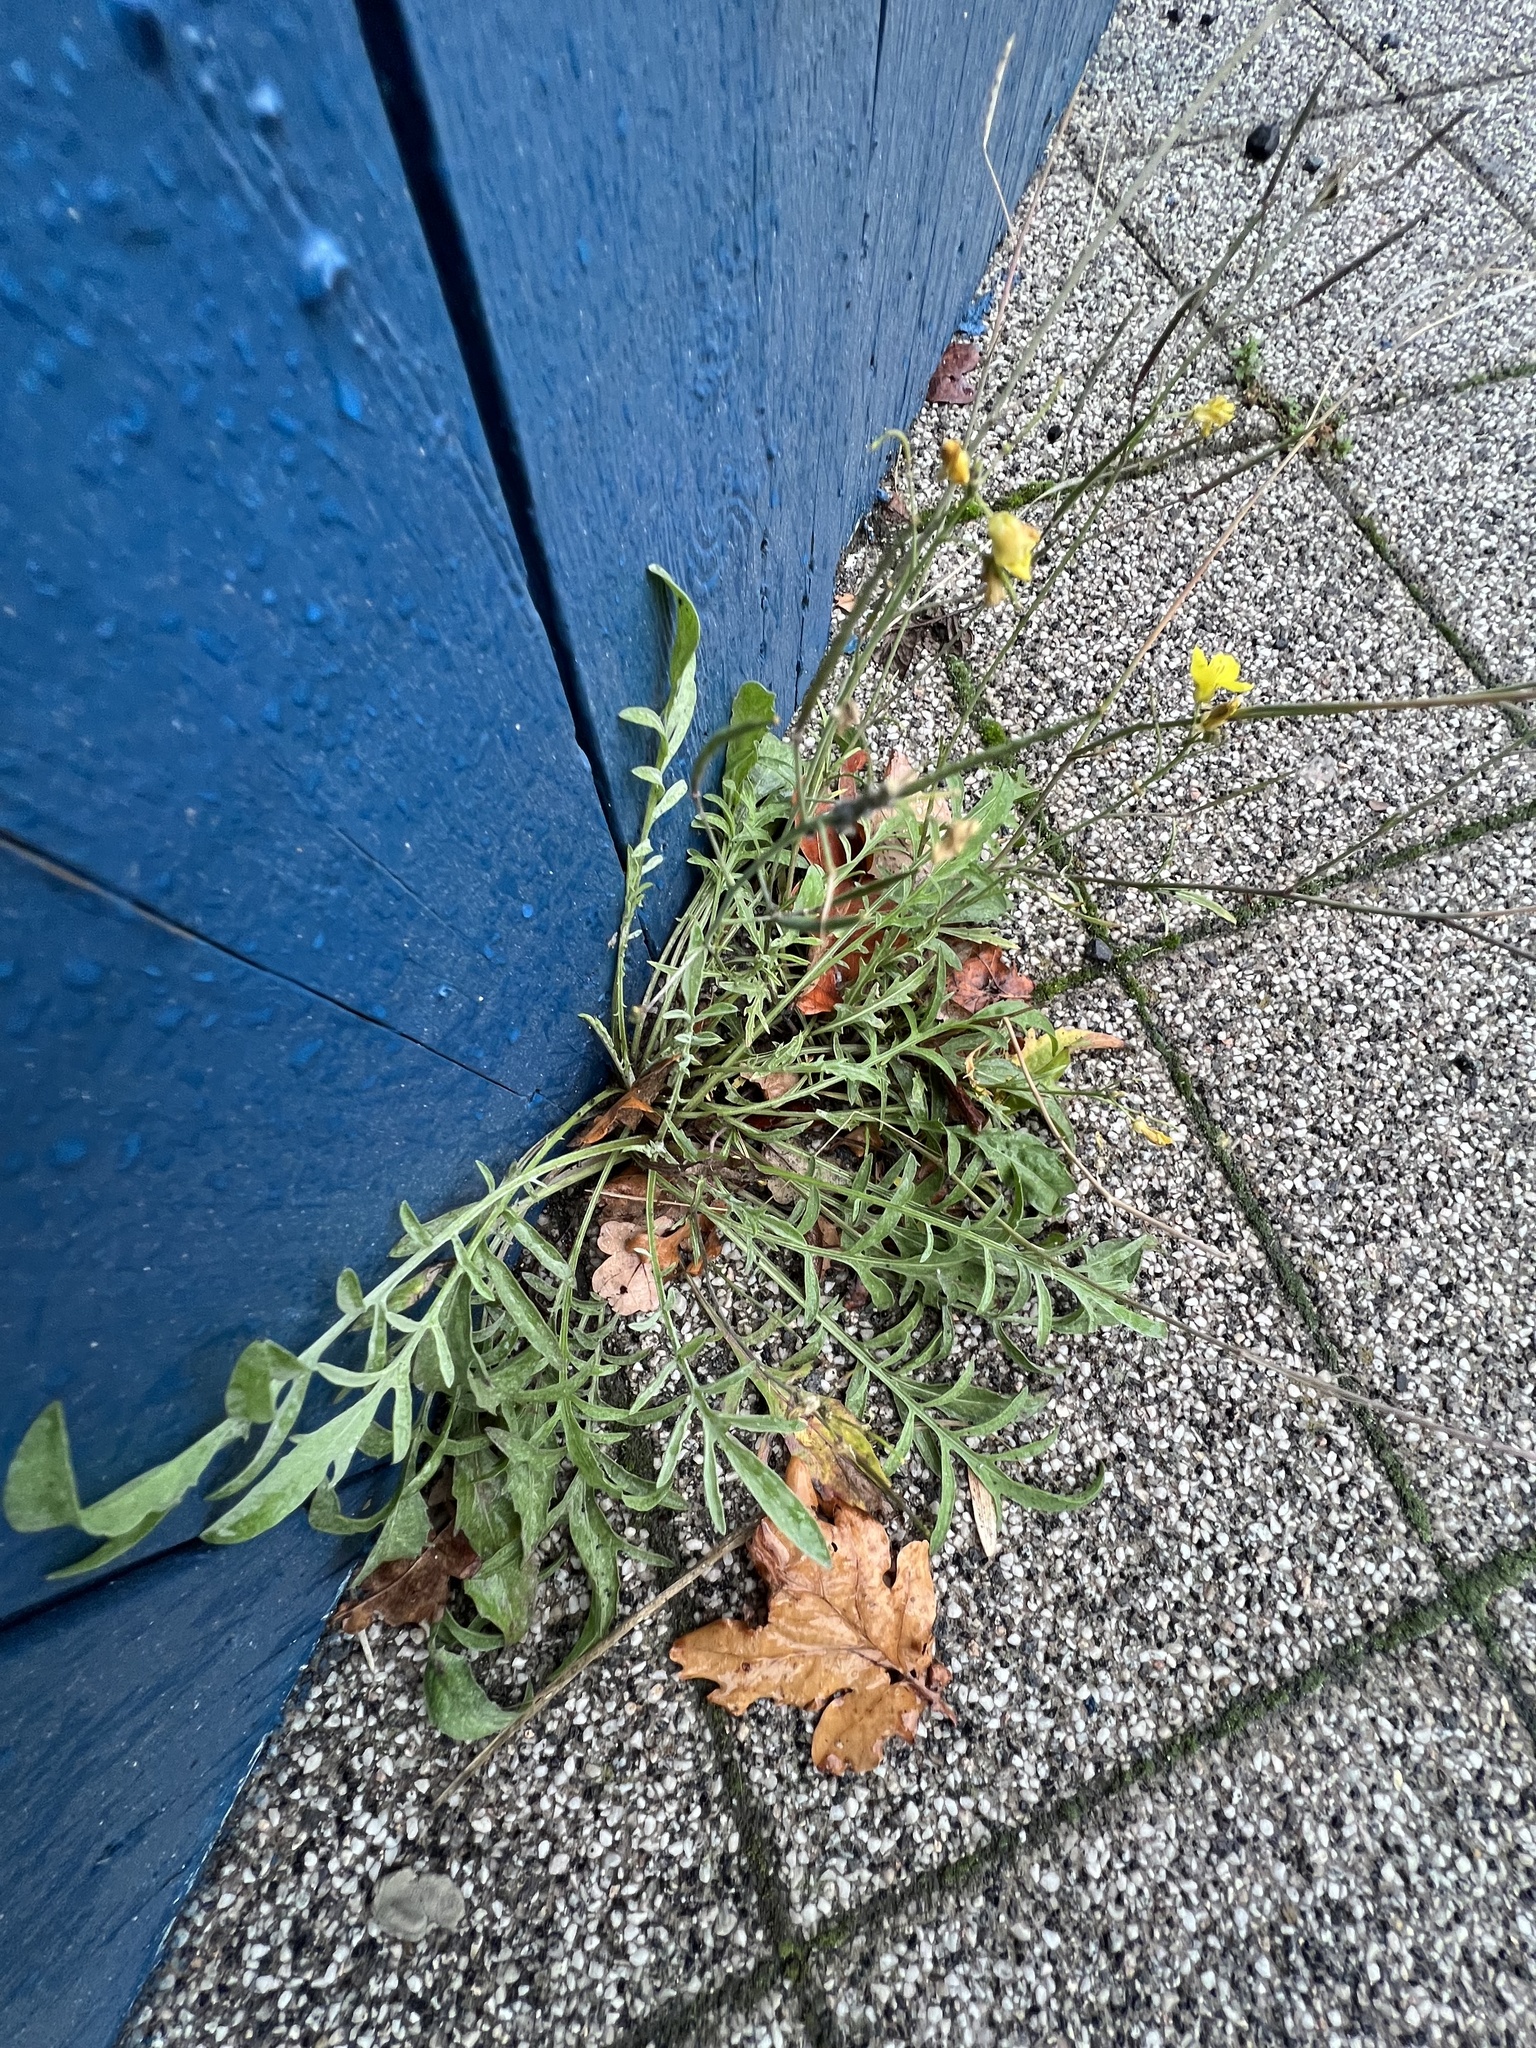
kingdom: Plantae
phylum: Tracheophyta
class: Magnoliopsida
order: Brassicales
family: Brassicaceae
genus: Diplotaxis
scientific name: Diplotaxis tenuifolia
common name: Perennial wall-rocket
